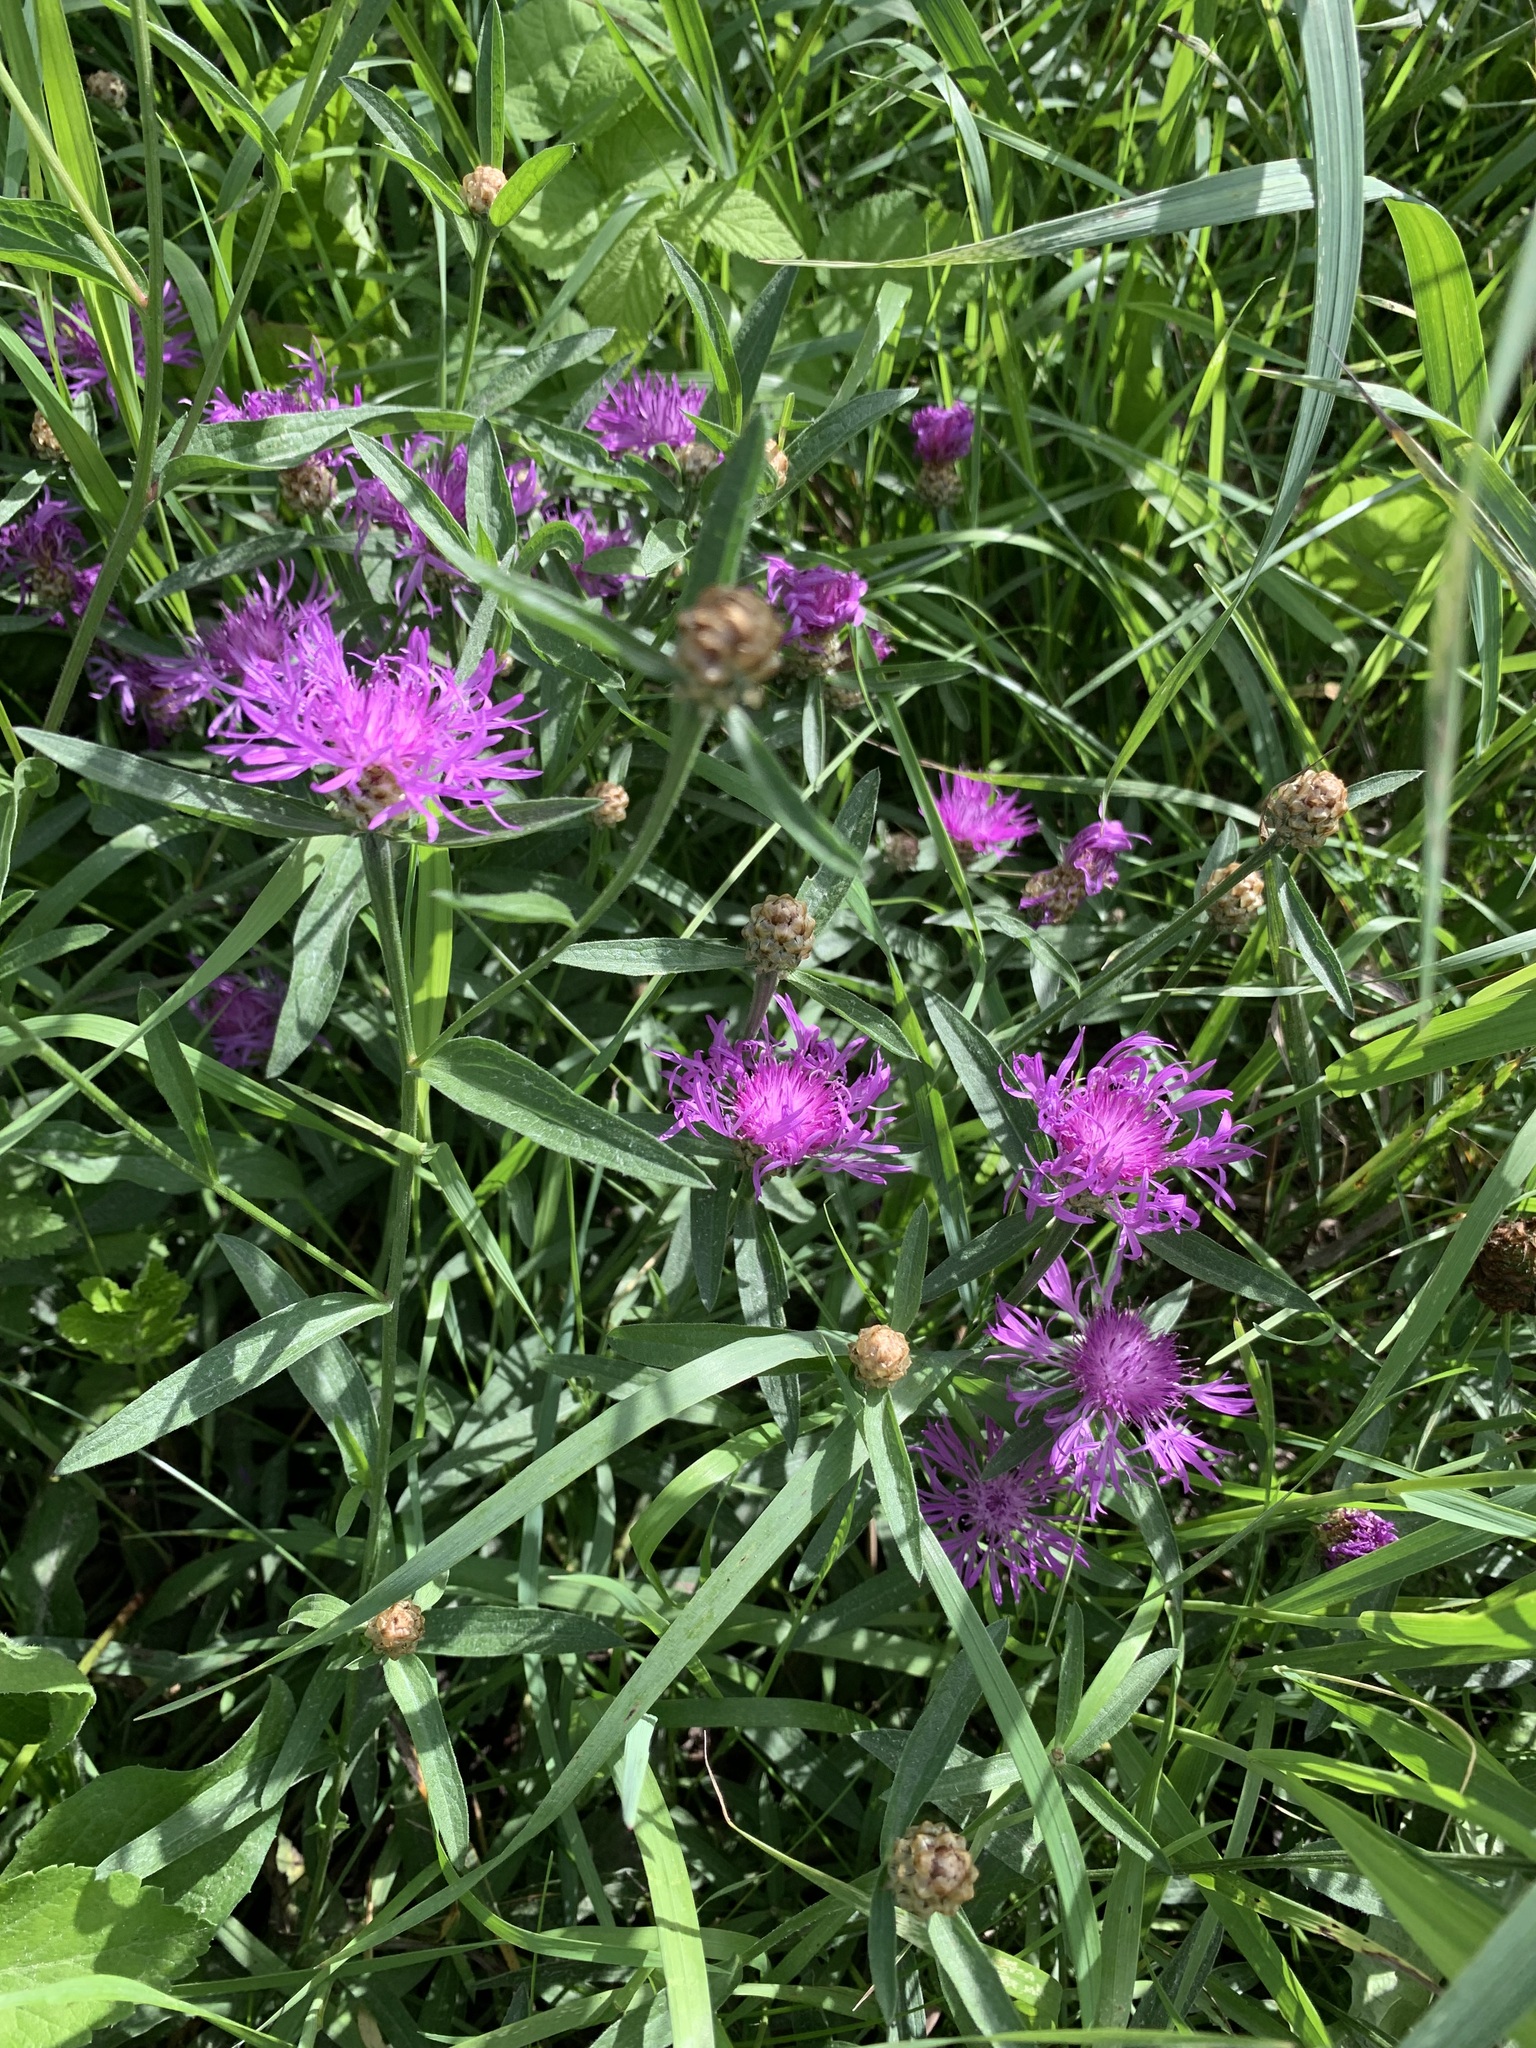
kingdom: Plantae
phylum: Tracheophyta
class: Magnoliopsida
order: Asterales
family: Asteraceae
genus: Centaurea
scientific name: Centaurea jacea
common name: Brown knapweed
